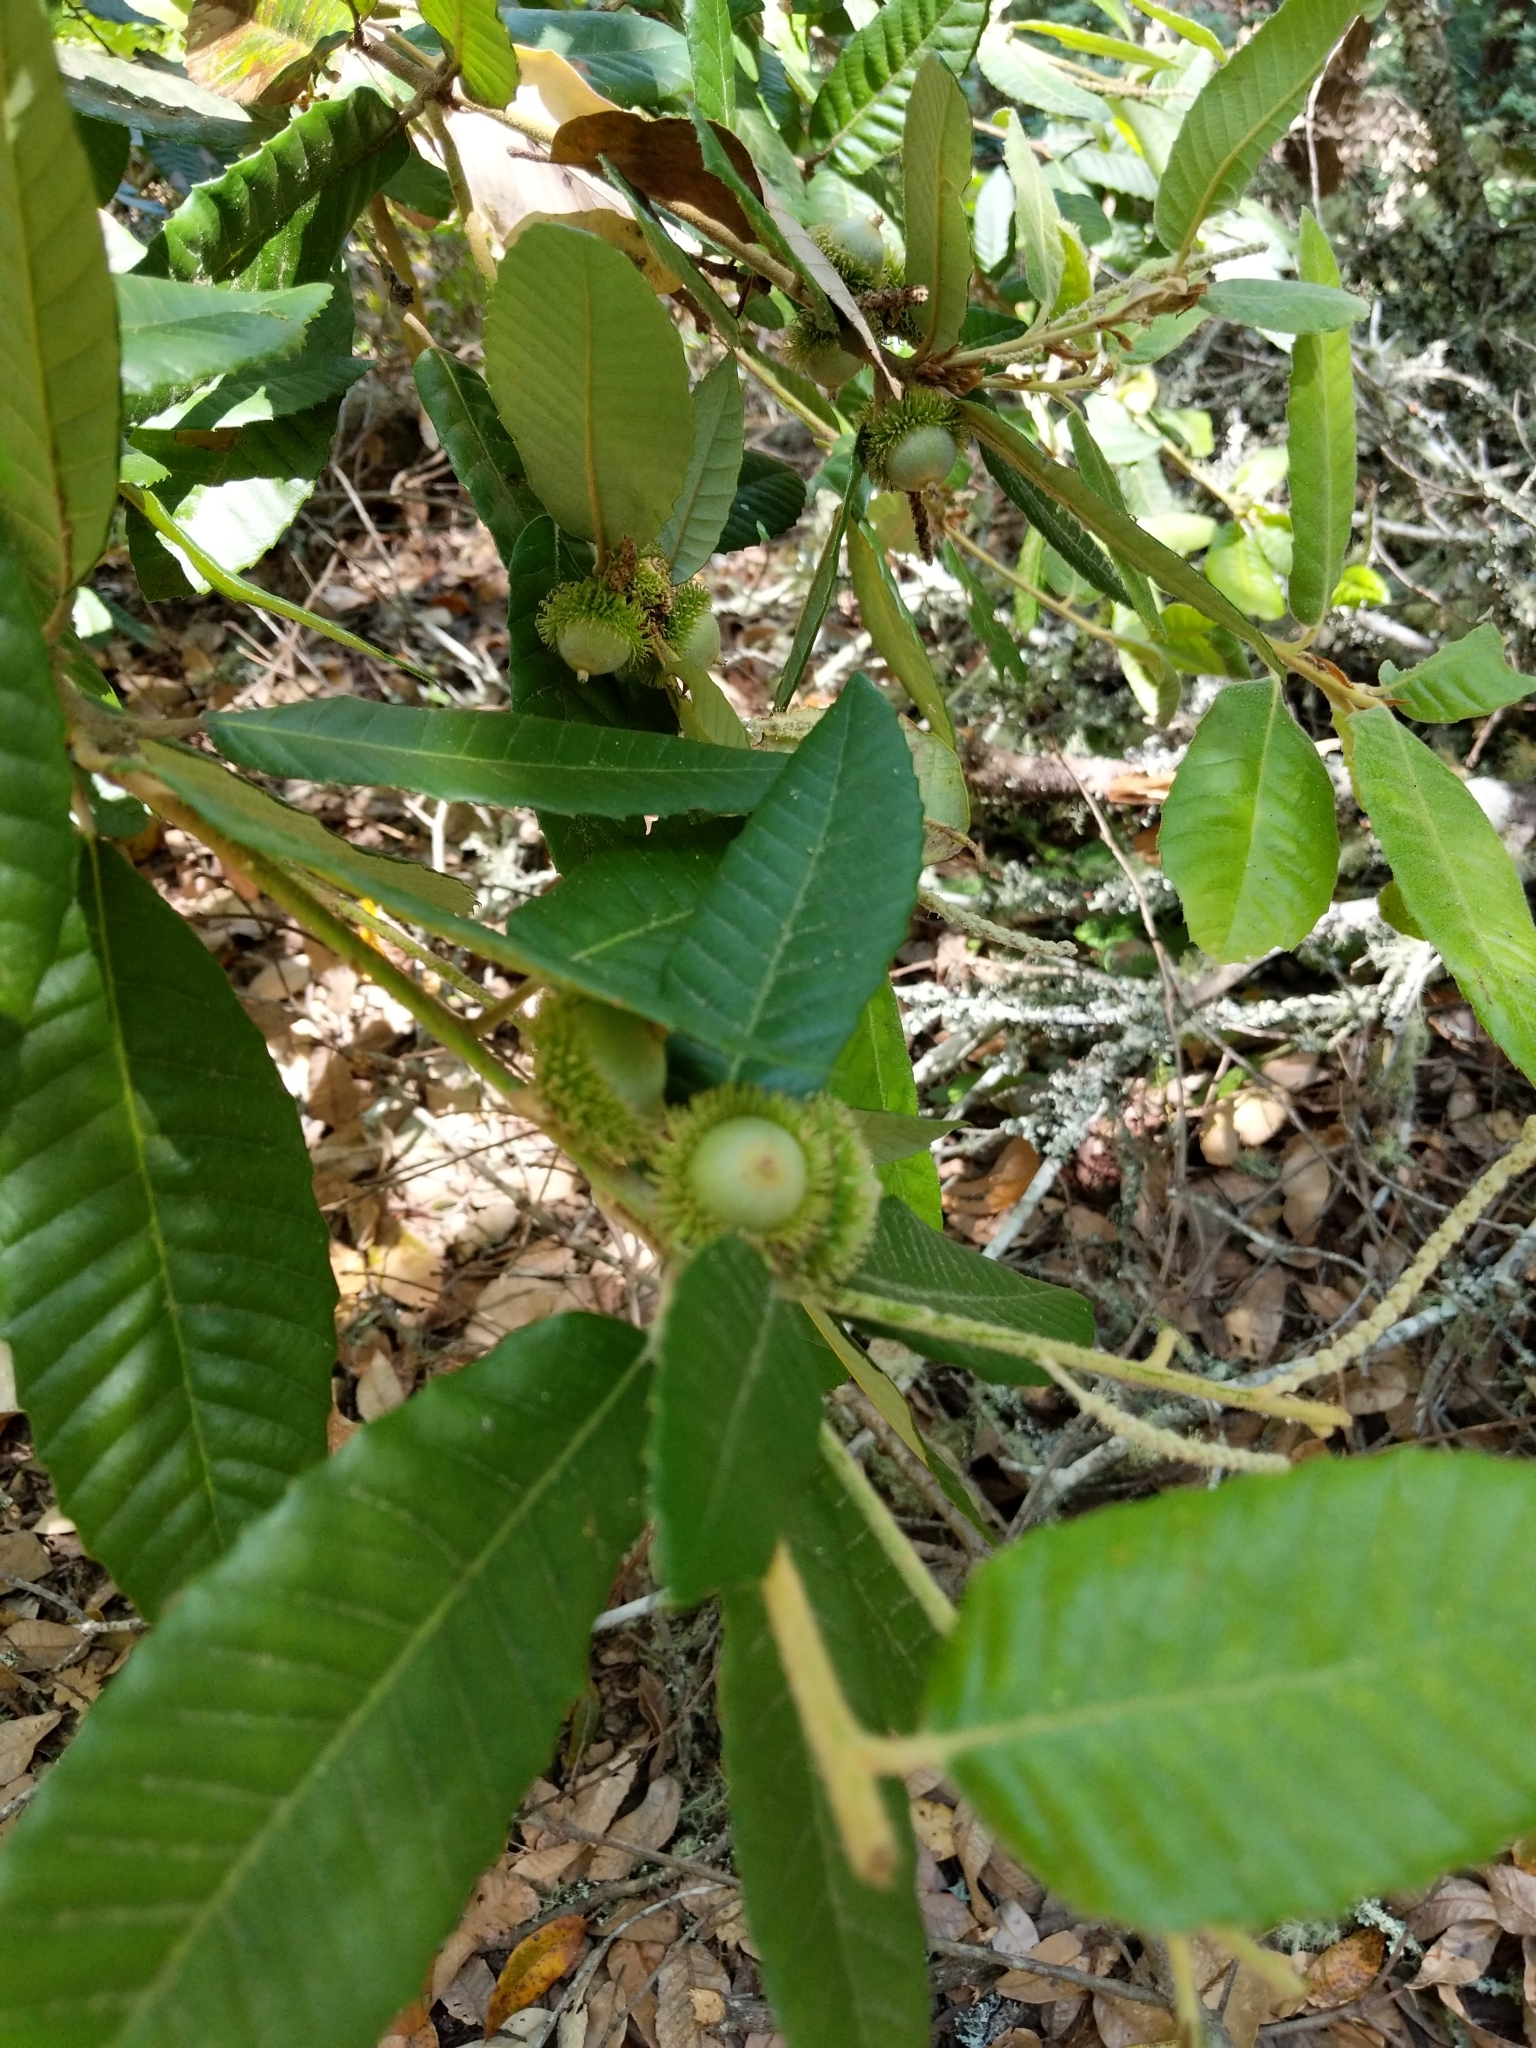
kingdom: Plantae
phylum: Tracheophyta
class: Magnoliopsida
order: Fagales
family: Fagaceae
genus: Notholithocarpus
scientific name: Notholithocarpus densiflorus
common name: Tan bark oak
